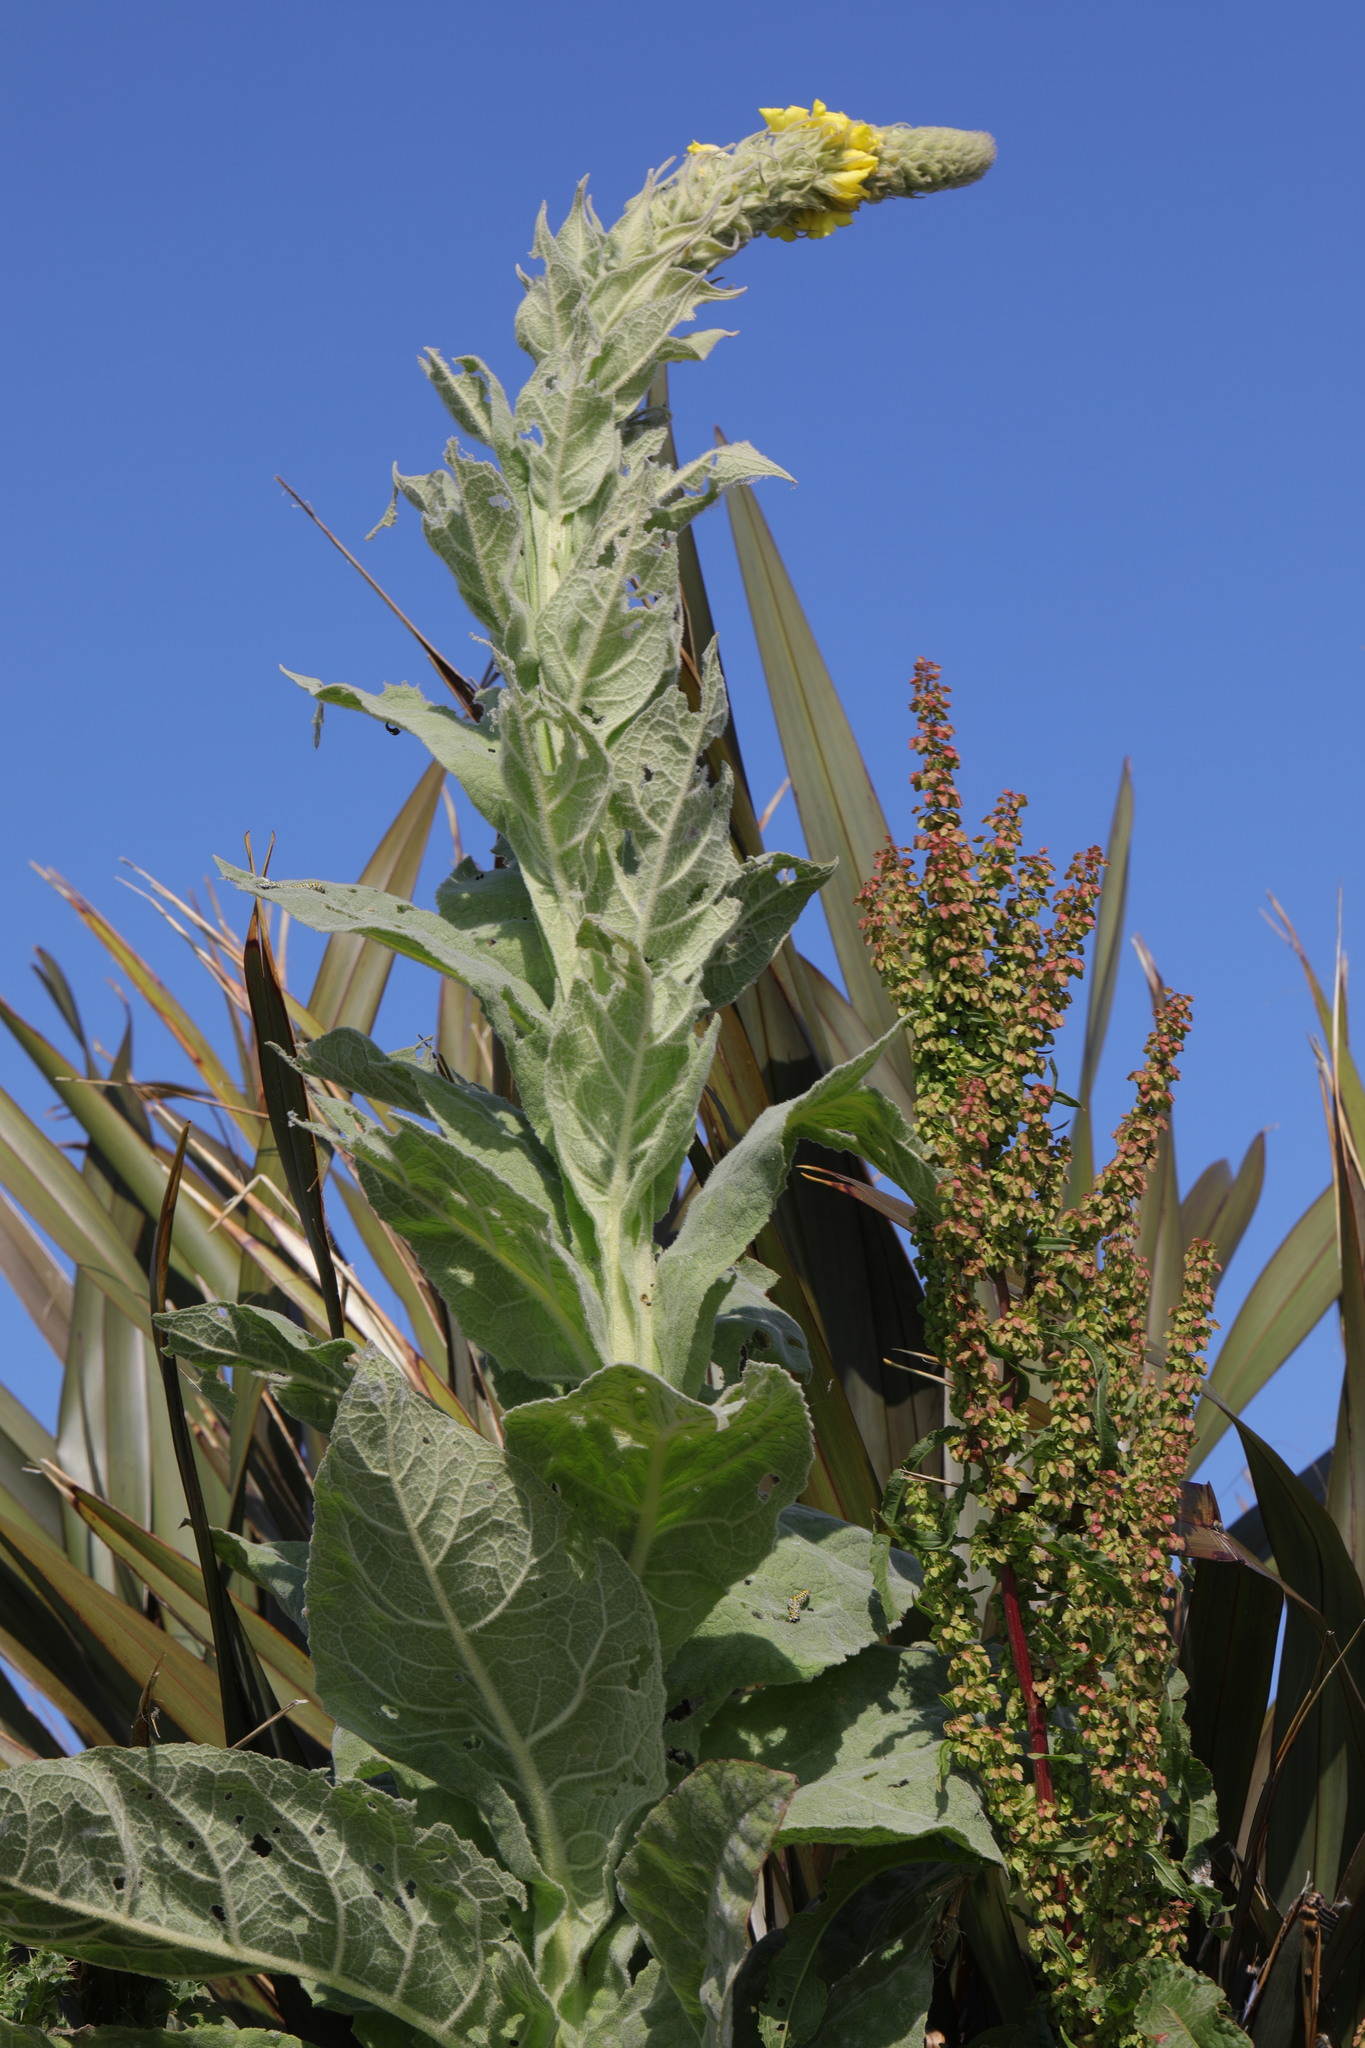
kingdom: Plantae
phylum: Tracheophyta
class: Magnoliopsida
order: Lamiales
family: Scrophulariaceae
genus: Verbascum
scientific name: Verbascum thapsus
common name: Common mullein
